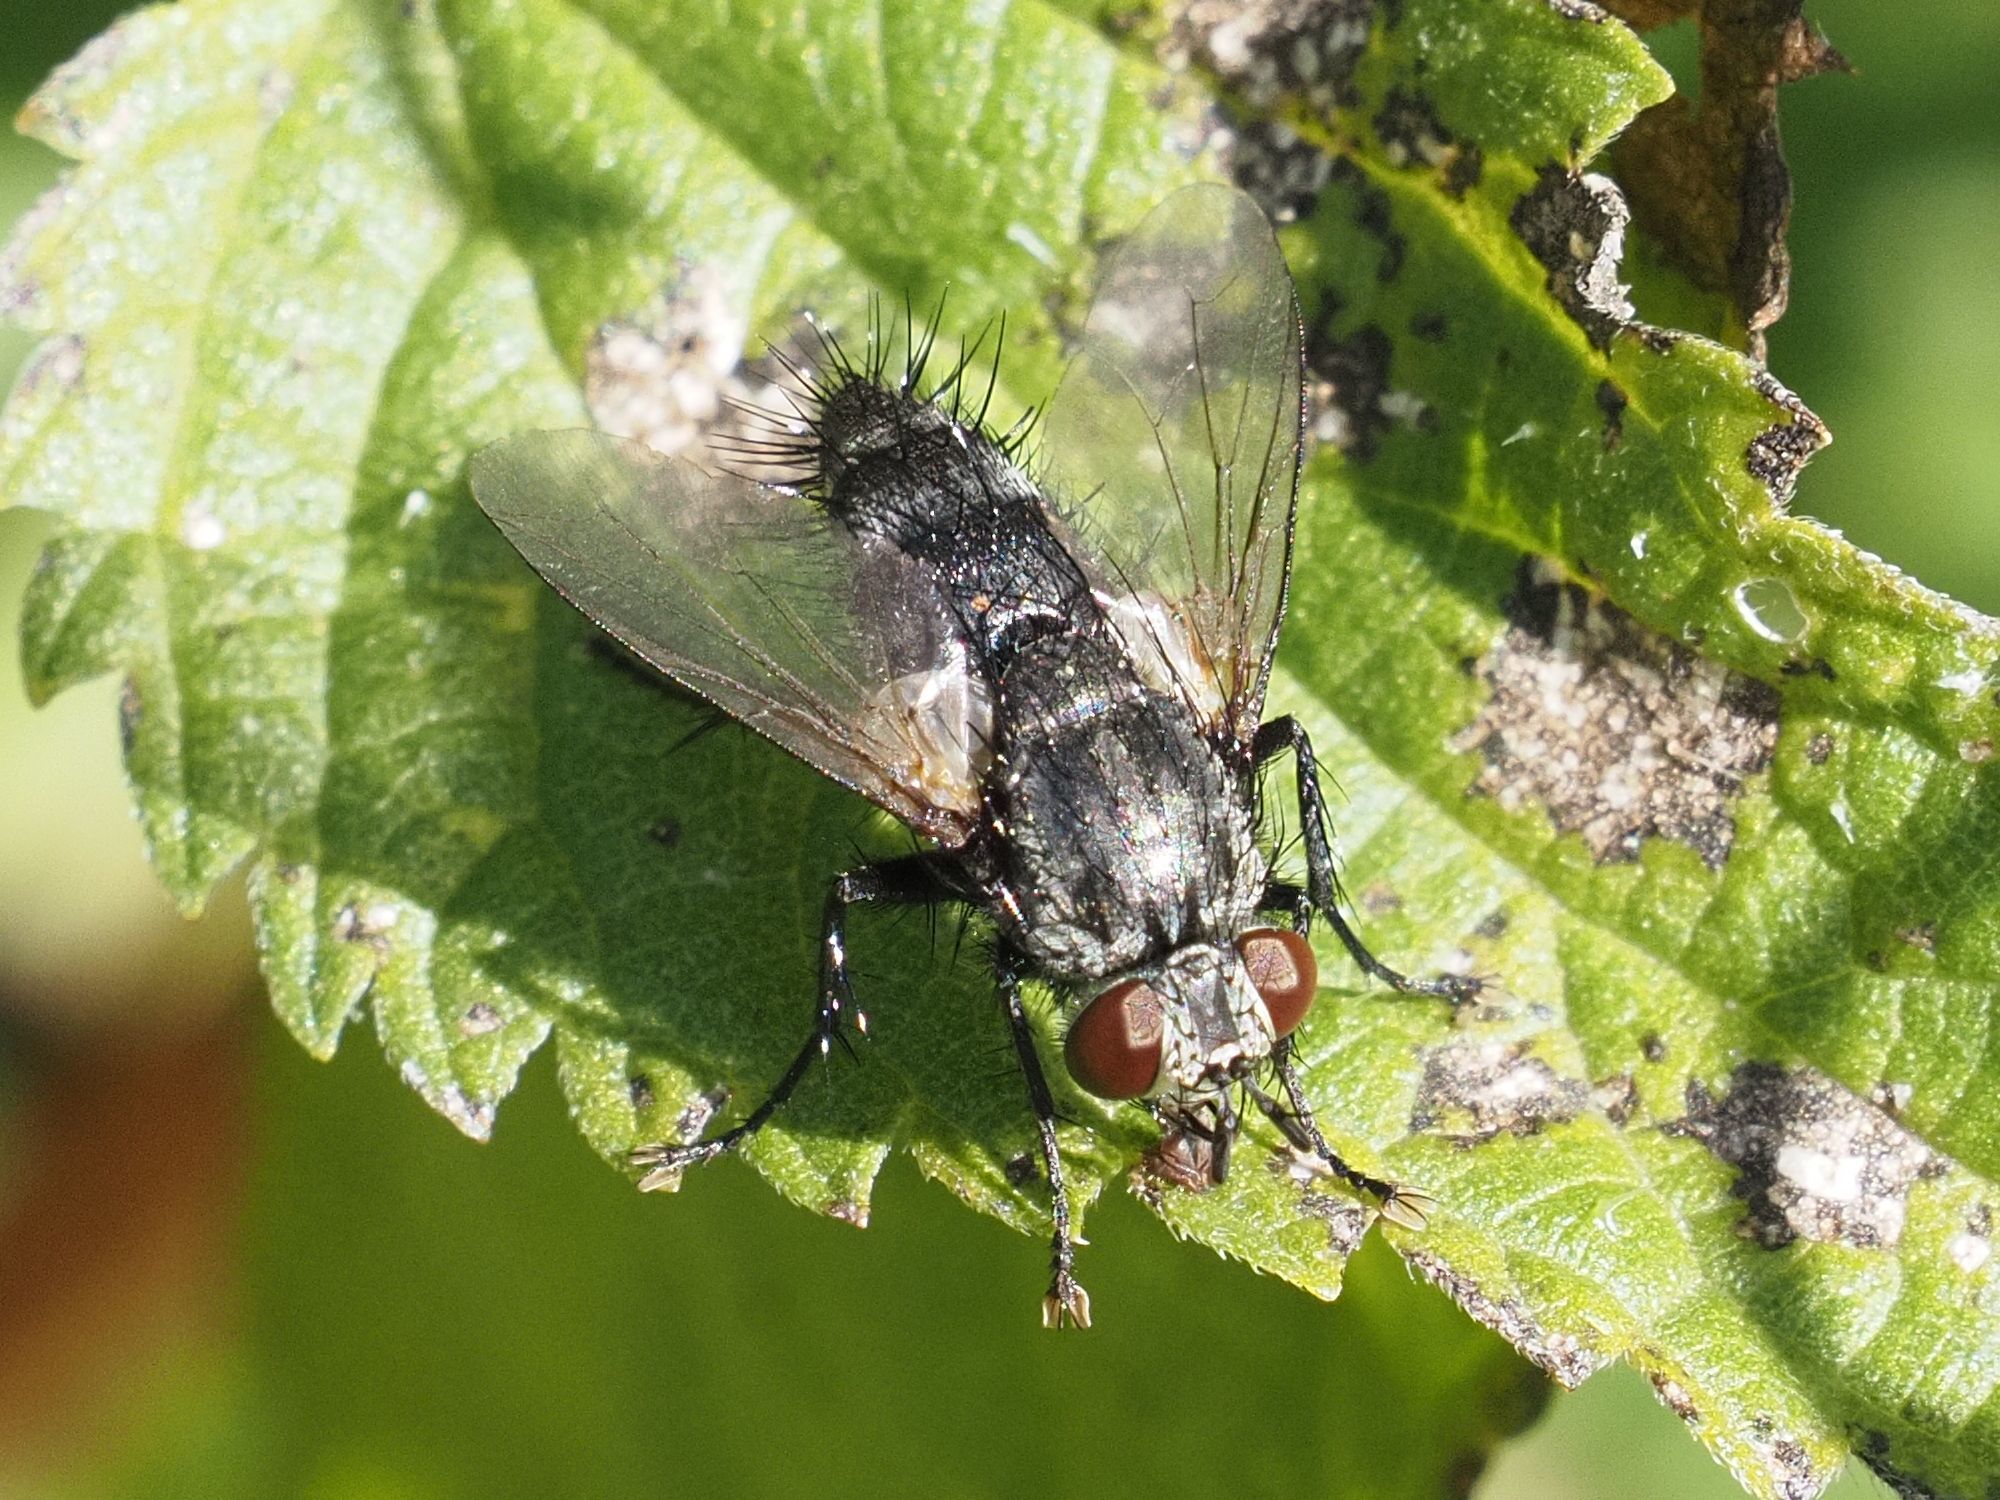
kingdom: Animalia
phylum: Arthropoda
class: Insecta
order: Diptera
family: Tachinidae
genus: Voria
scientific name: Voria ruralis
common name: Parasitic fly
